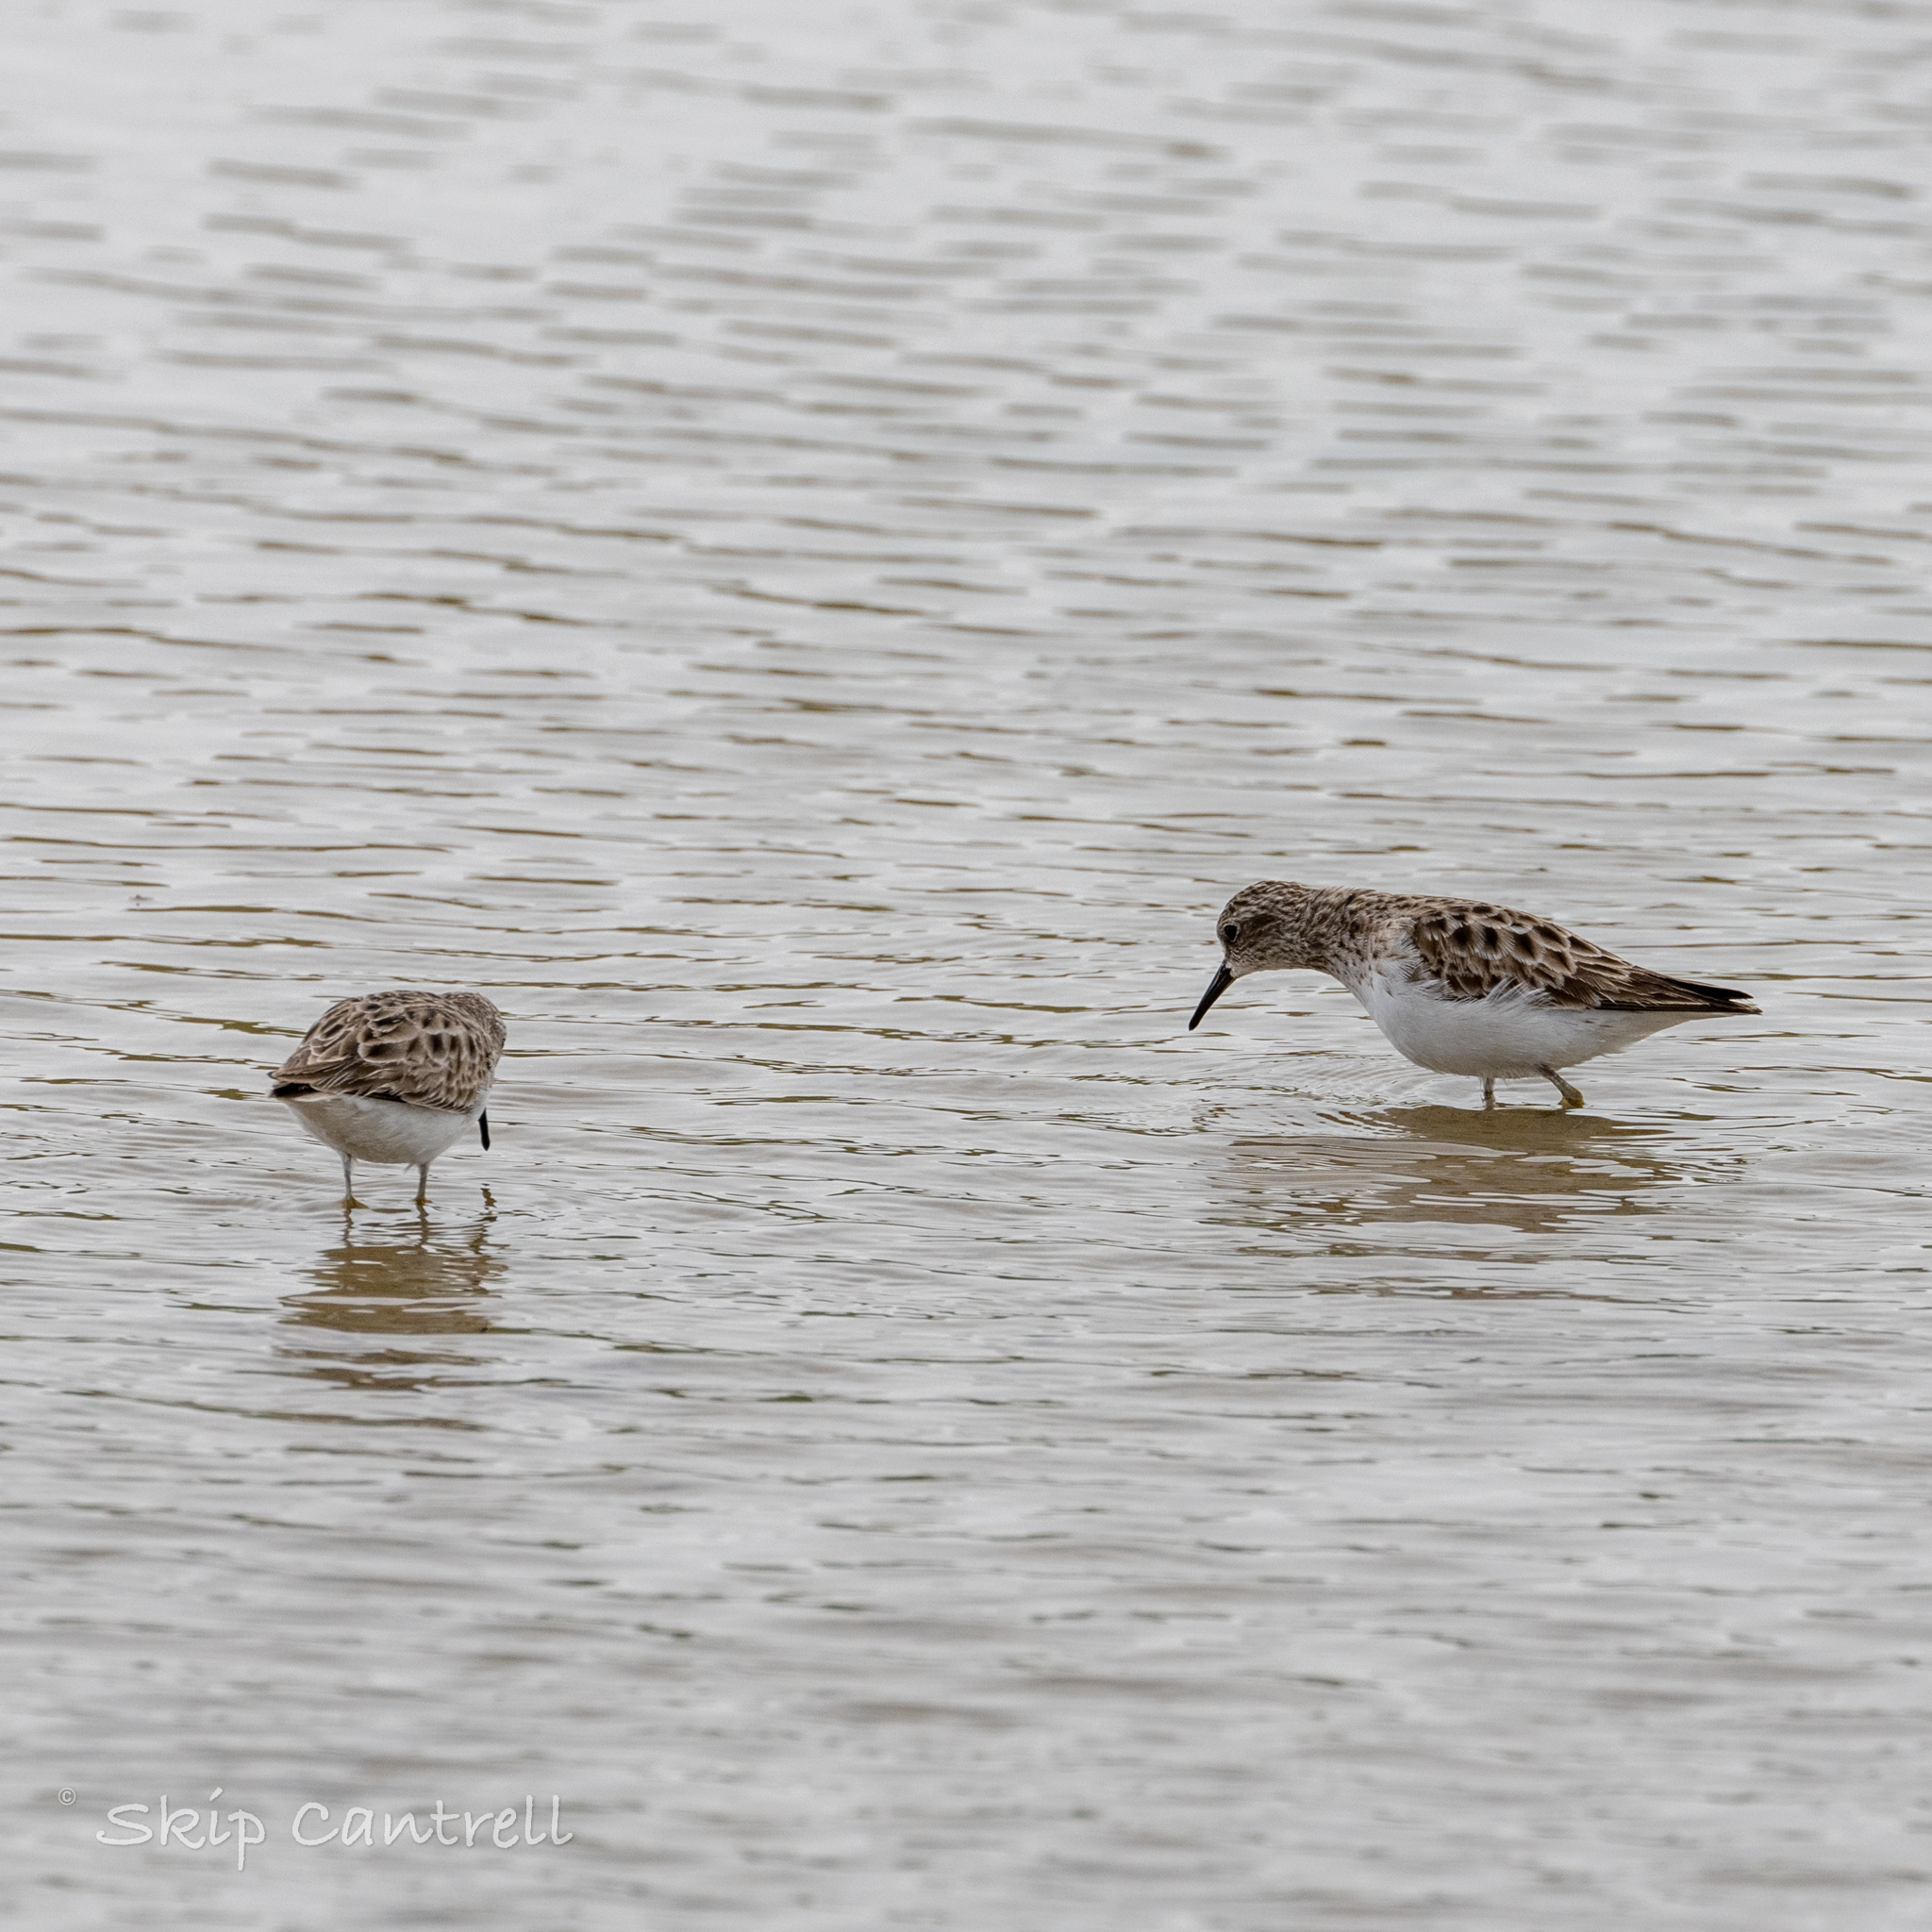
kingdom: Animalia
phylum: Chordata
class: Aves
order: Charadriiformes
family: Scolopacidae
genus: Calidris
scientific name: Calidris minutilla
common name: Least sandpiper
